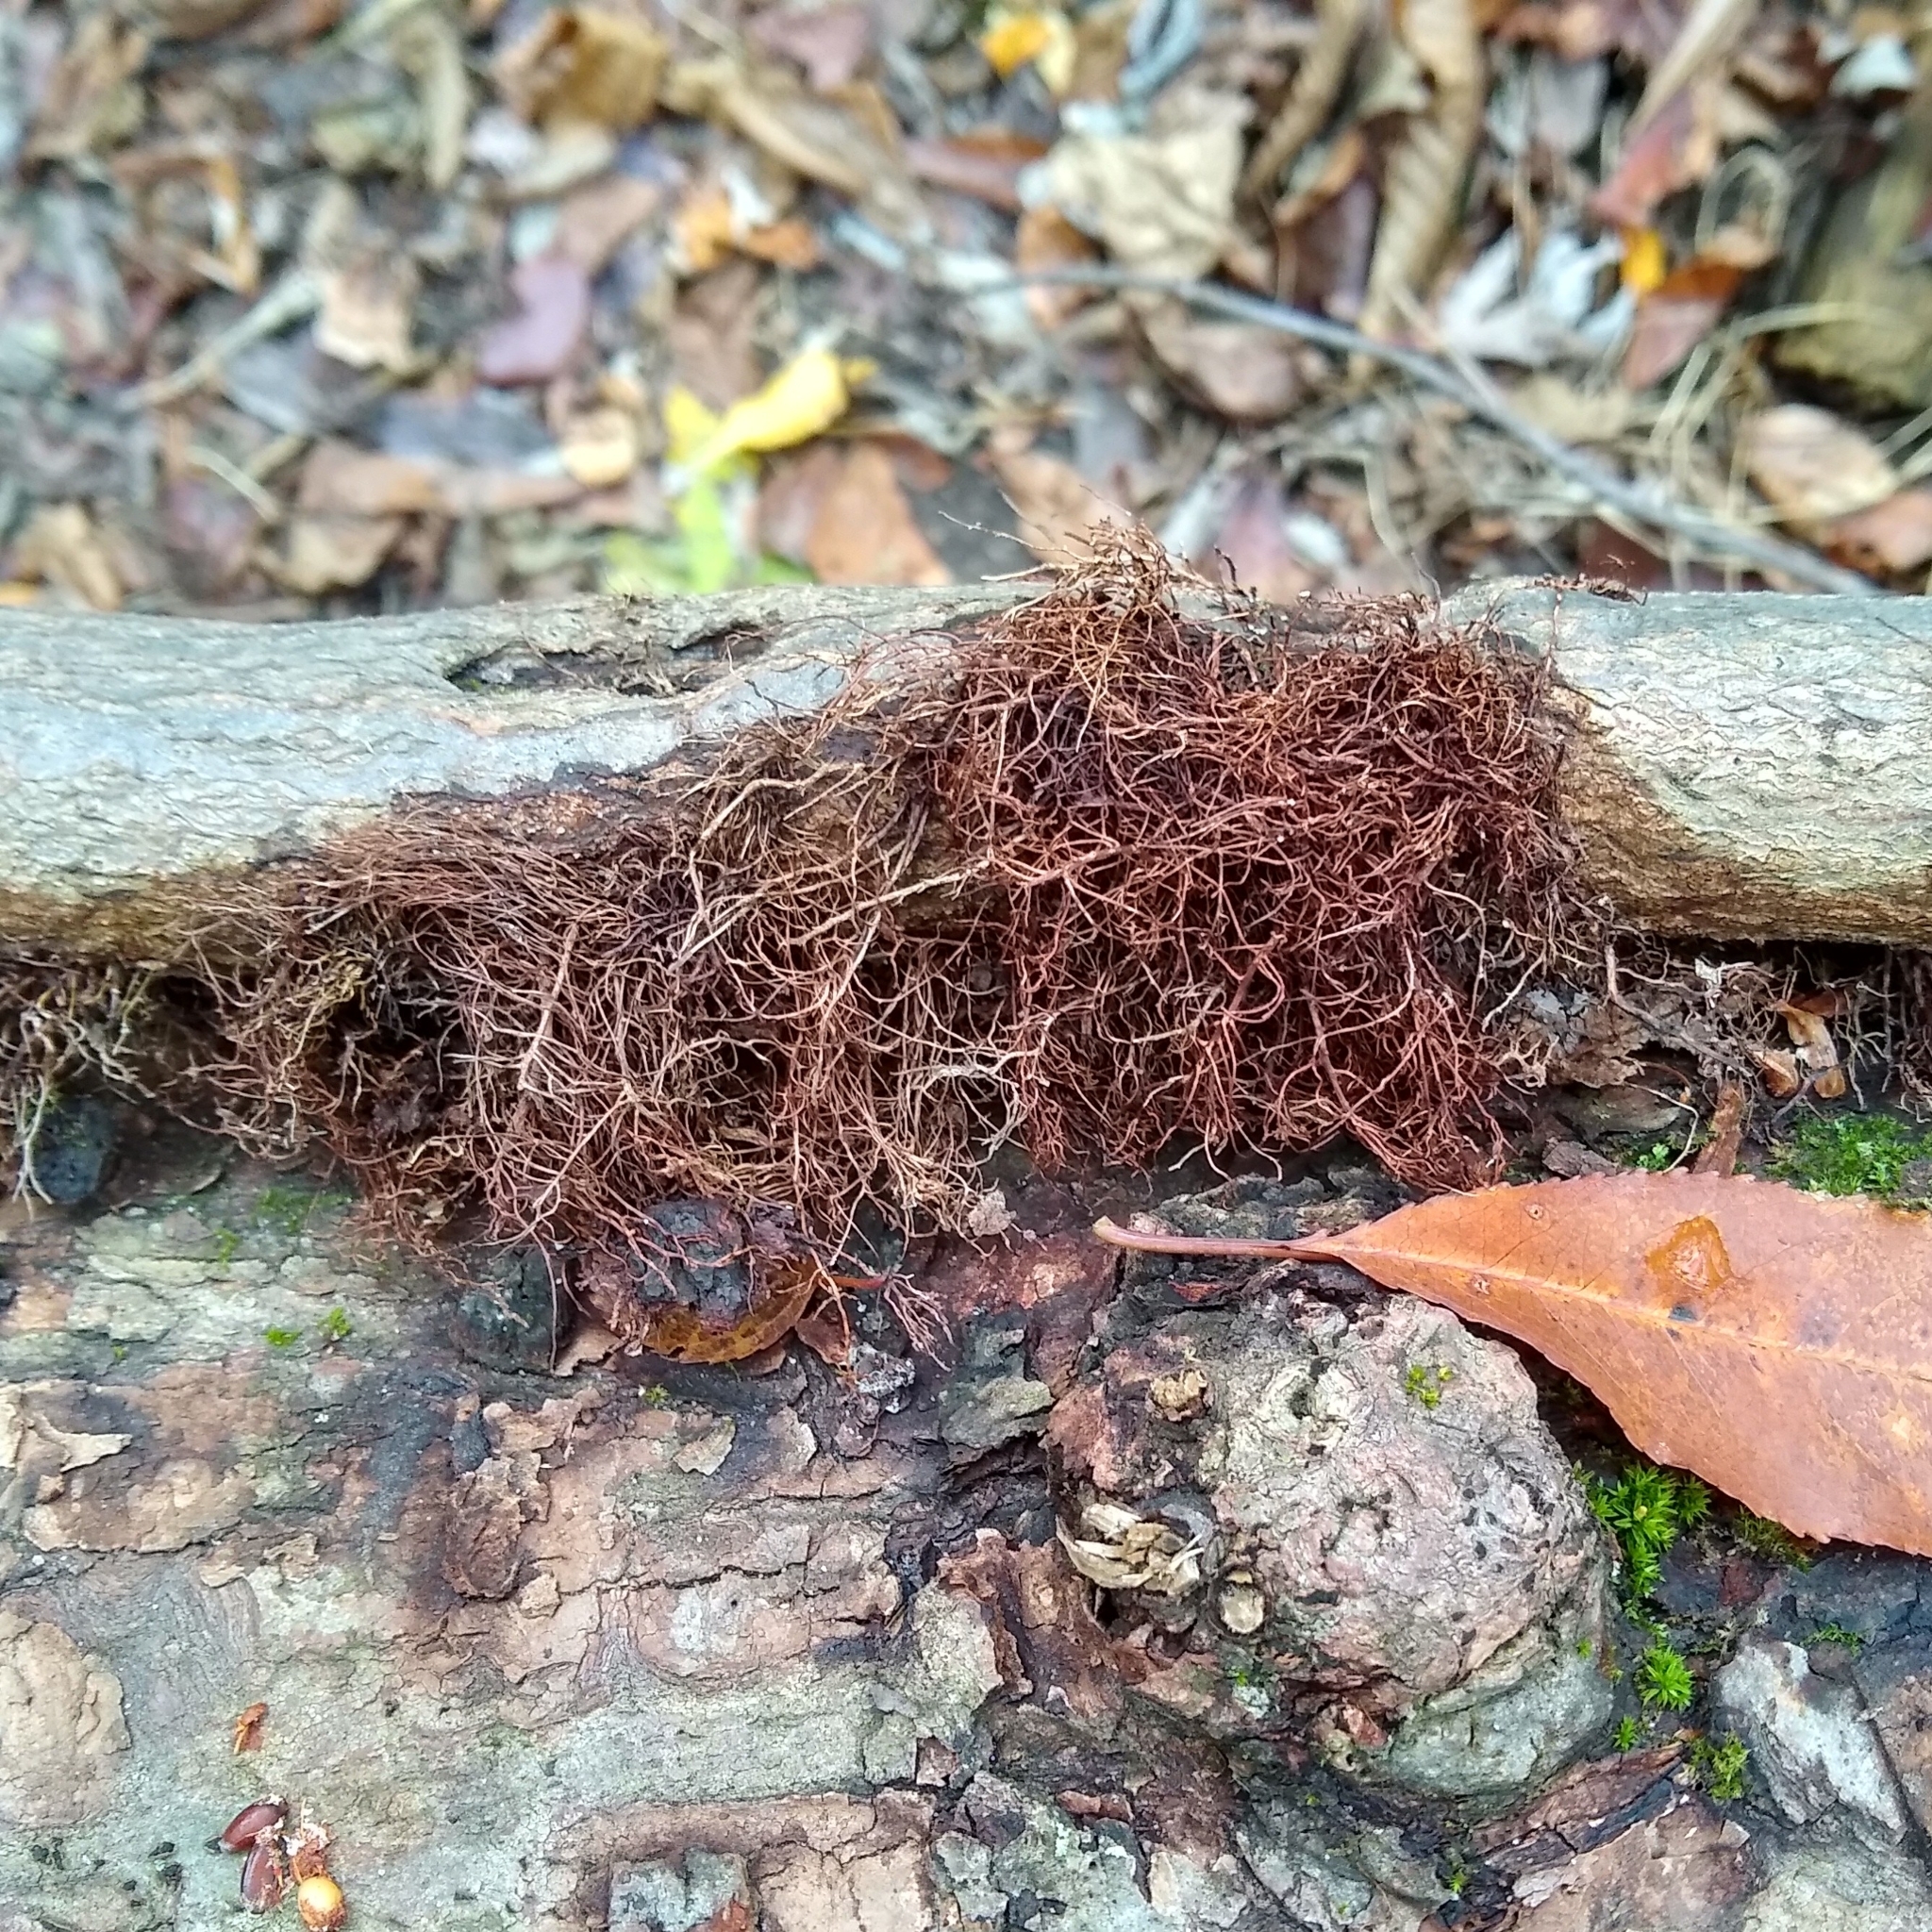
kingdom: Plantae
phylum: Tracheophyta
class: Magnoliopsida
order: Sapindales
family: Anacardiaceae
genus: Toxicodendron
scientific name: Toxicodendron radicans
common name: Poison ivy
